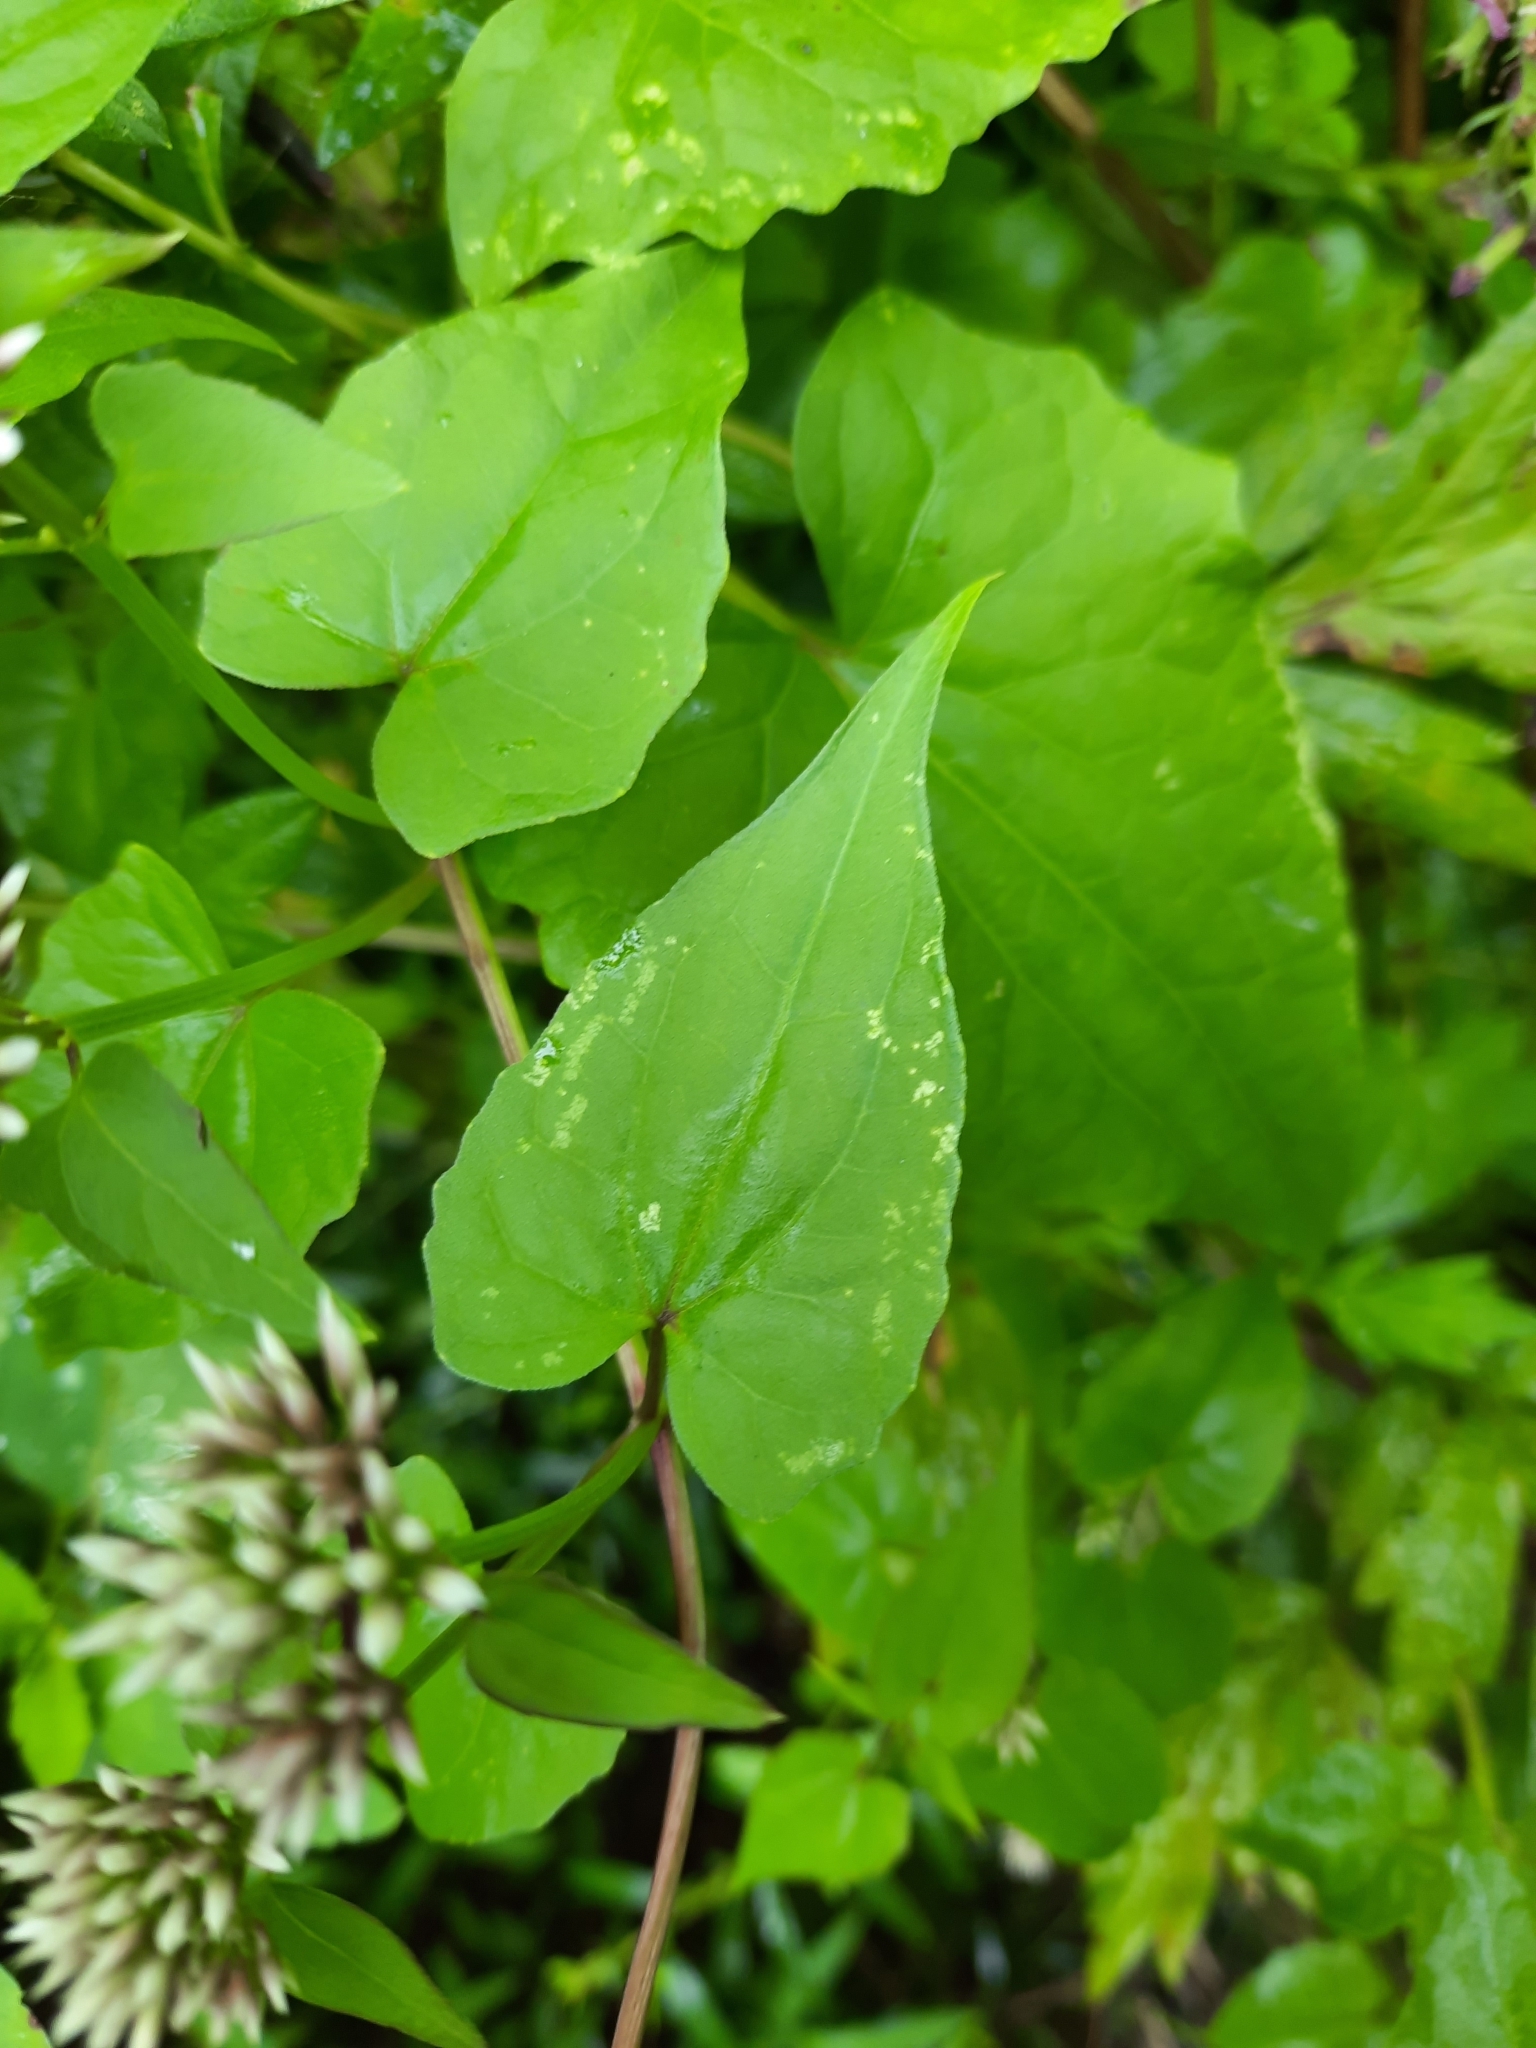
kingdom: Plantae
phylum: Tracheophyta
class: Magnoliopsida
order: Asterales
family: Asteraceae
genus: Mikania
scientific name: Mikania scandens
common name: Climbing hempvine
